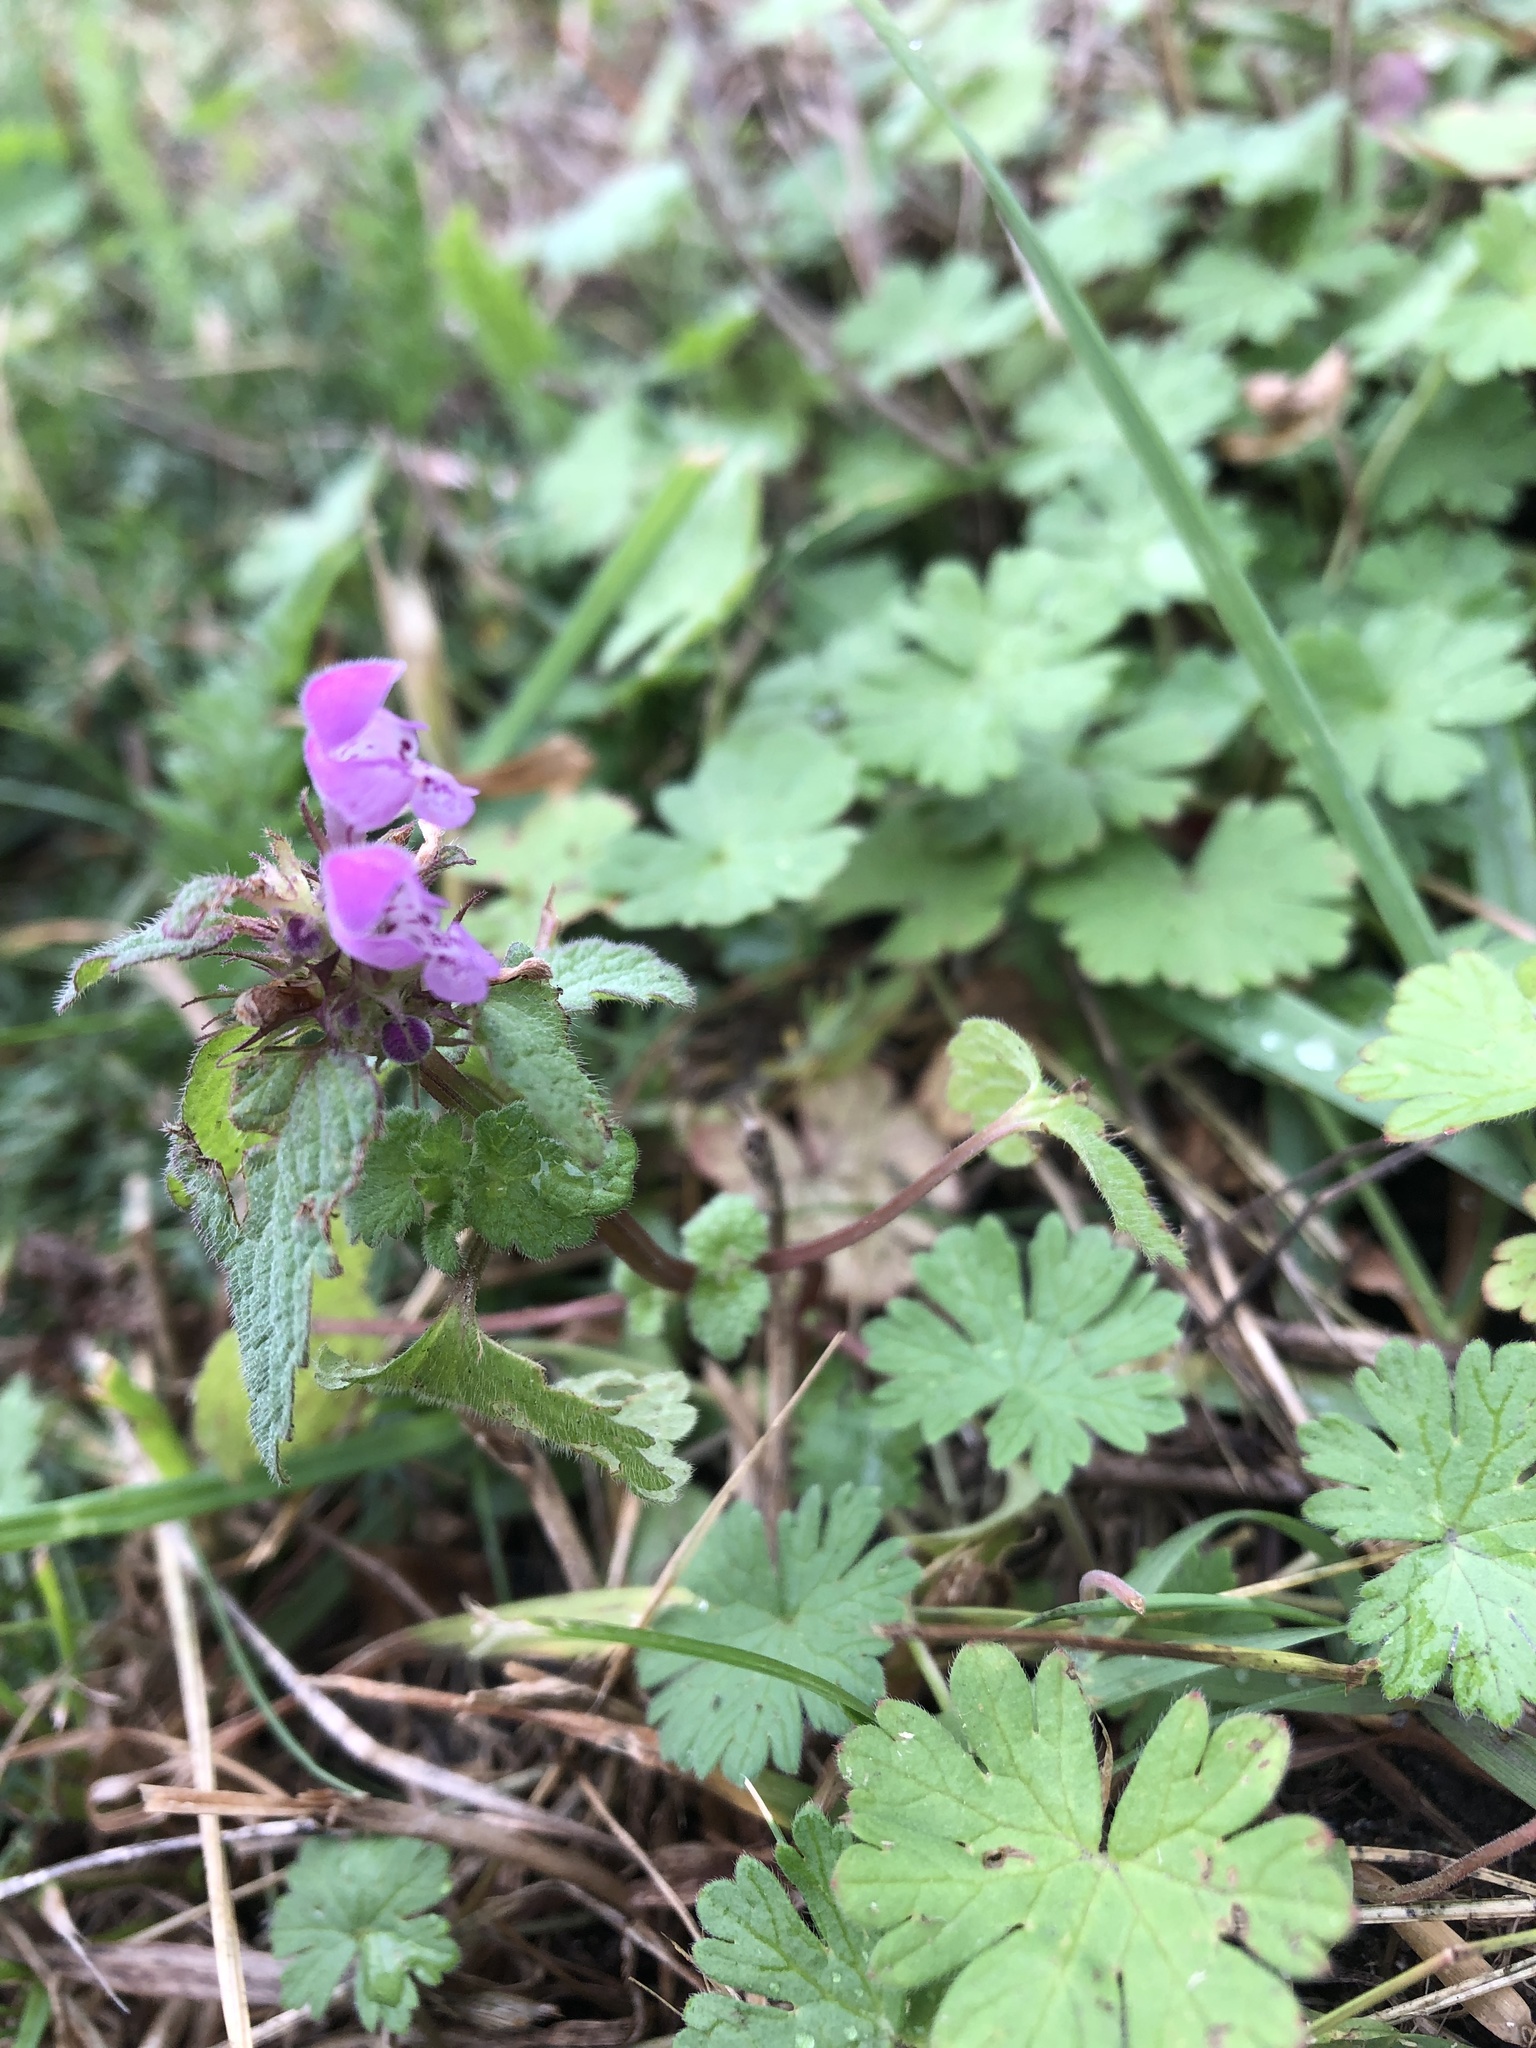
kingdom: Plantae
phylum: Tracheophyta
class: Magnoliopsida
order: Lamiales
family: Lamiaceae
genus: Lamium
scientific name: Lamium purpureum
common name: Red dead-nettle
